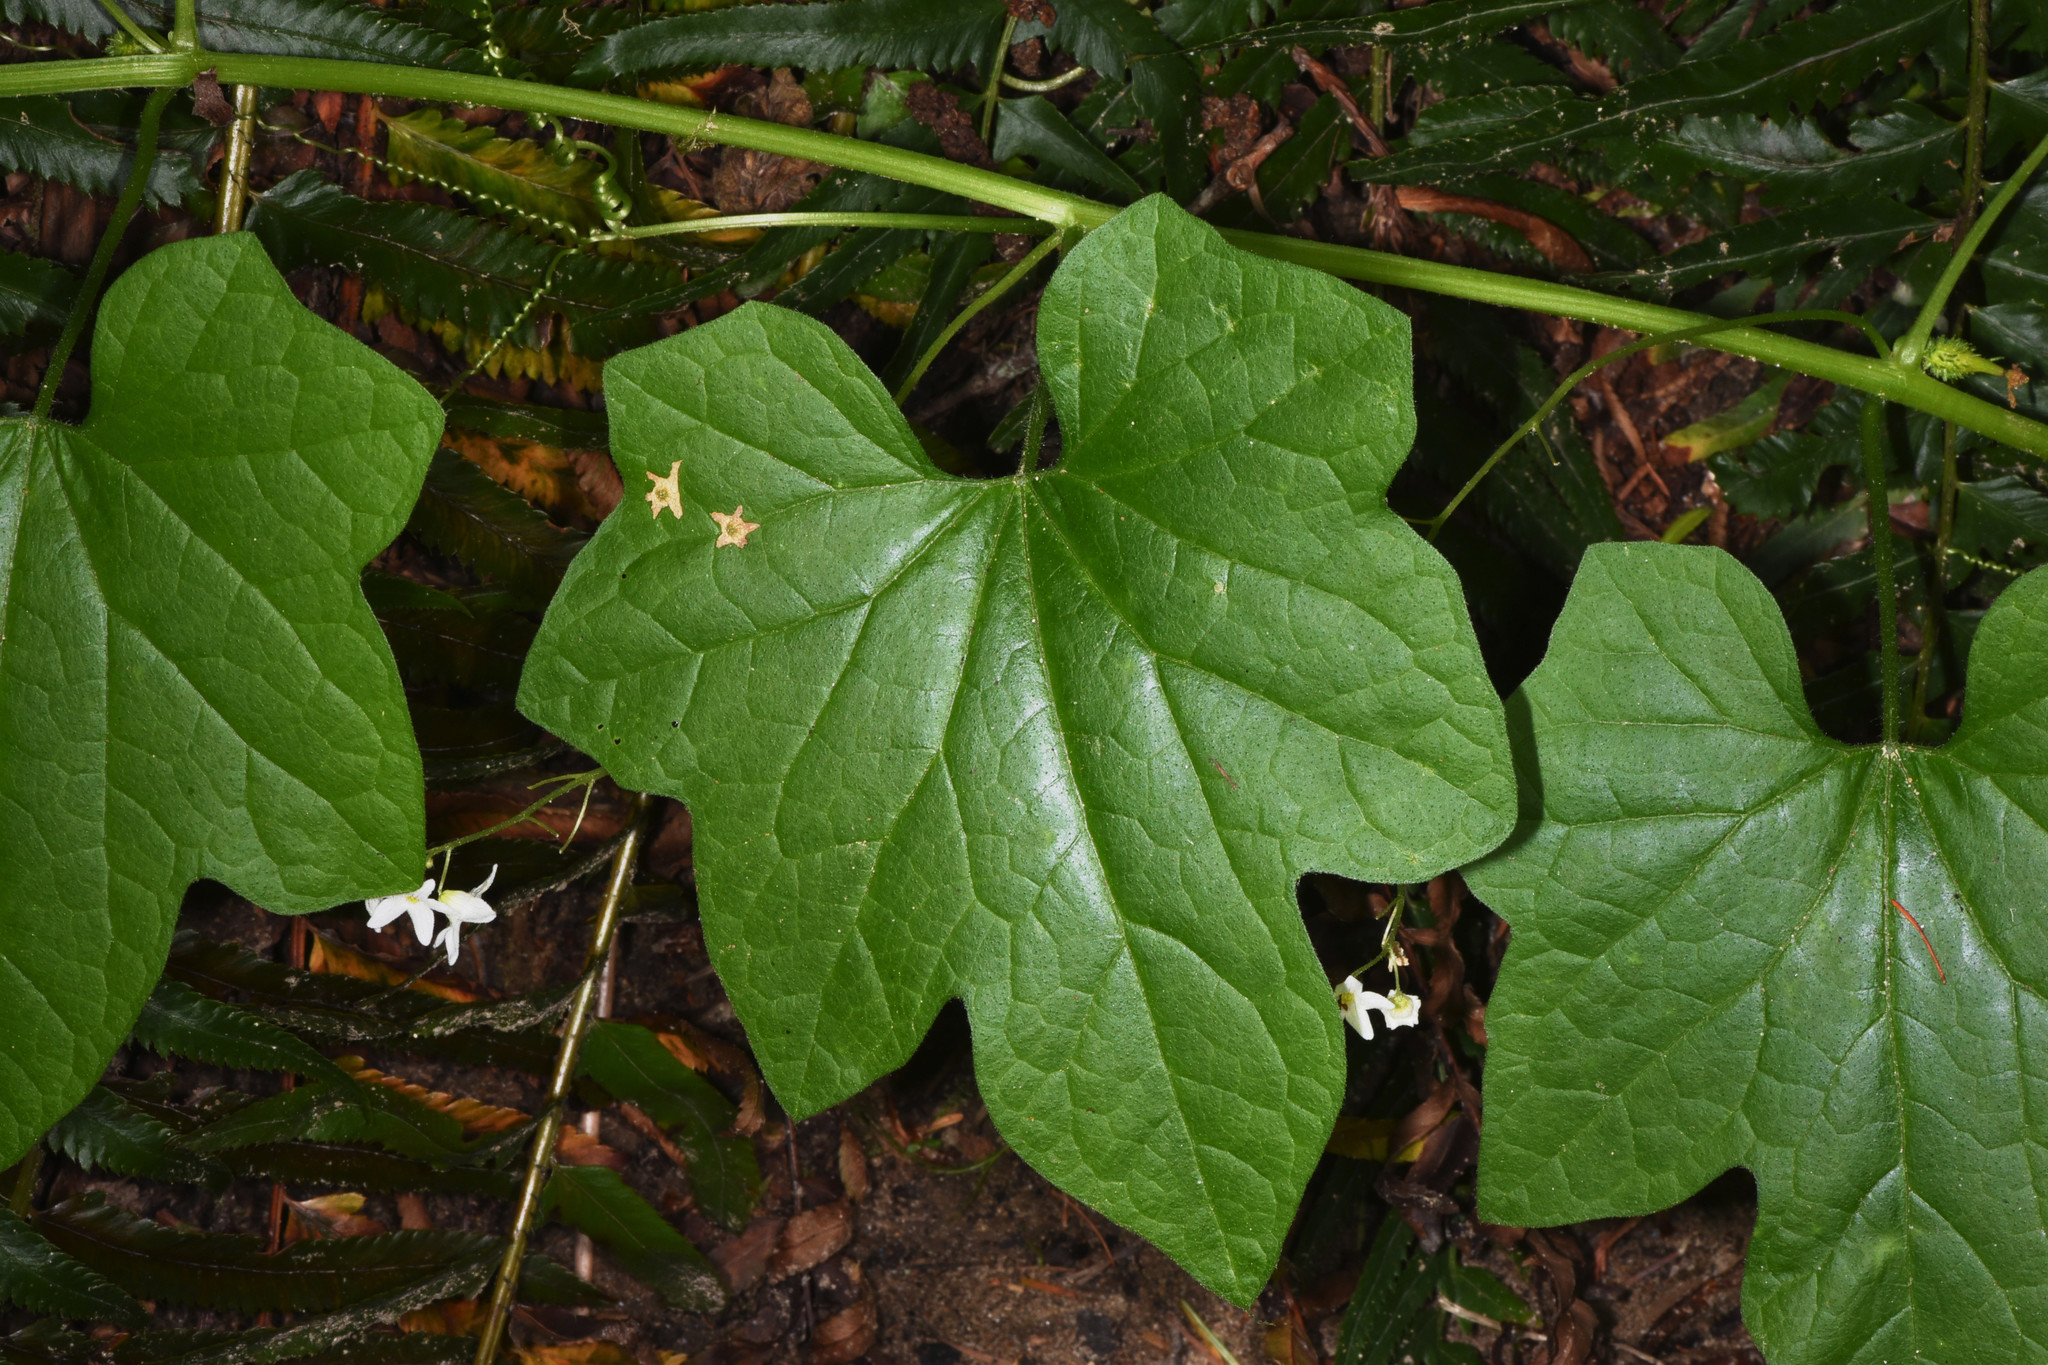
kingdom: Plantae
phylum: Tracheophyta
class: Magnoliopsida
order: Cucurbitales
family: Cucurbitaceae
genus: Marah
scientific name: Marah oregana
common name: Coastal manroot
